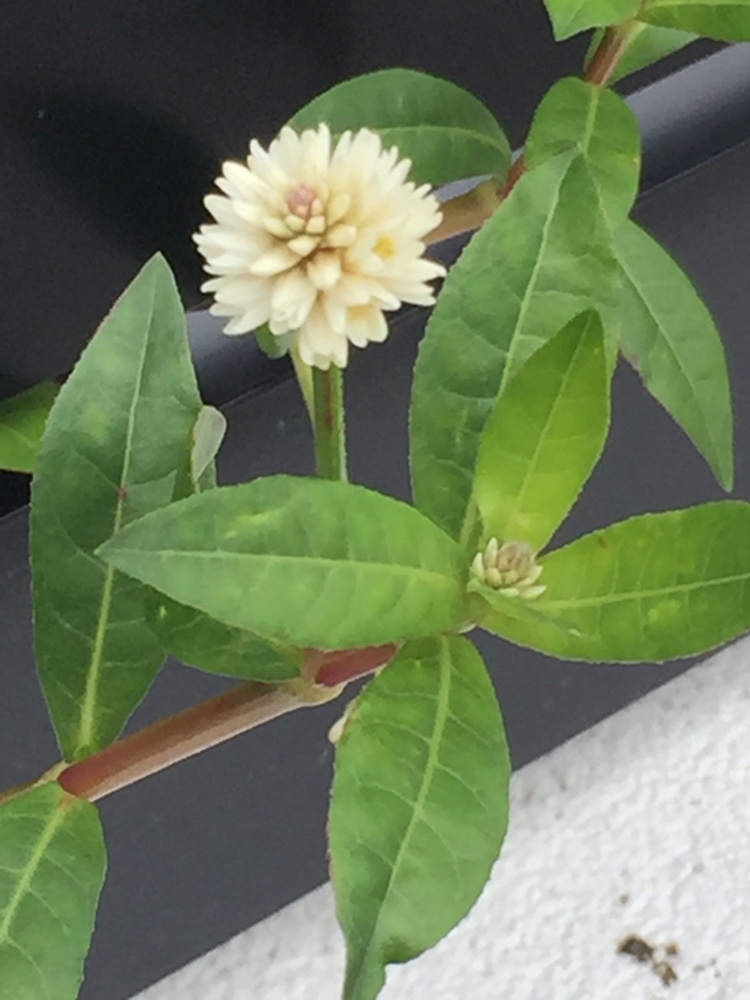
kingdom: Plantae
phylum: Tracheophyta
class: Magnoliopsida
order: Caryophyllales
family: Amaranthaceae
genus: Alternanthera
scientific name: Alternanthera philoxeroides
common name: Alligatorweed
